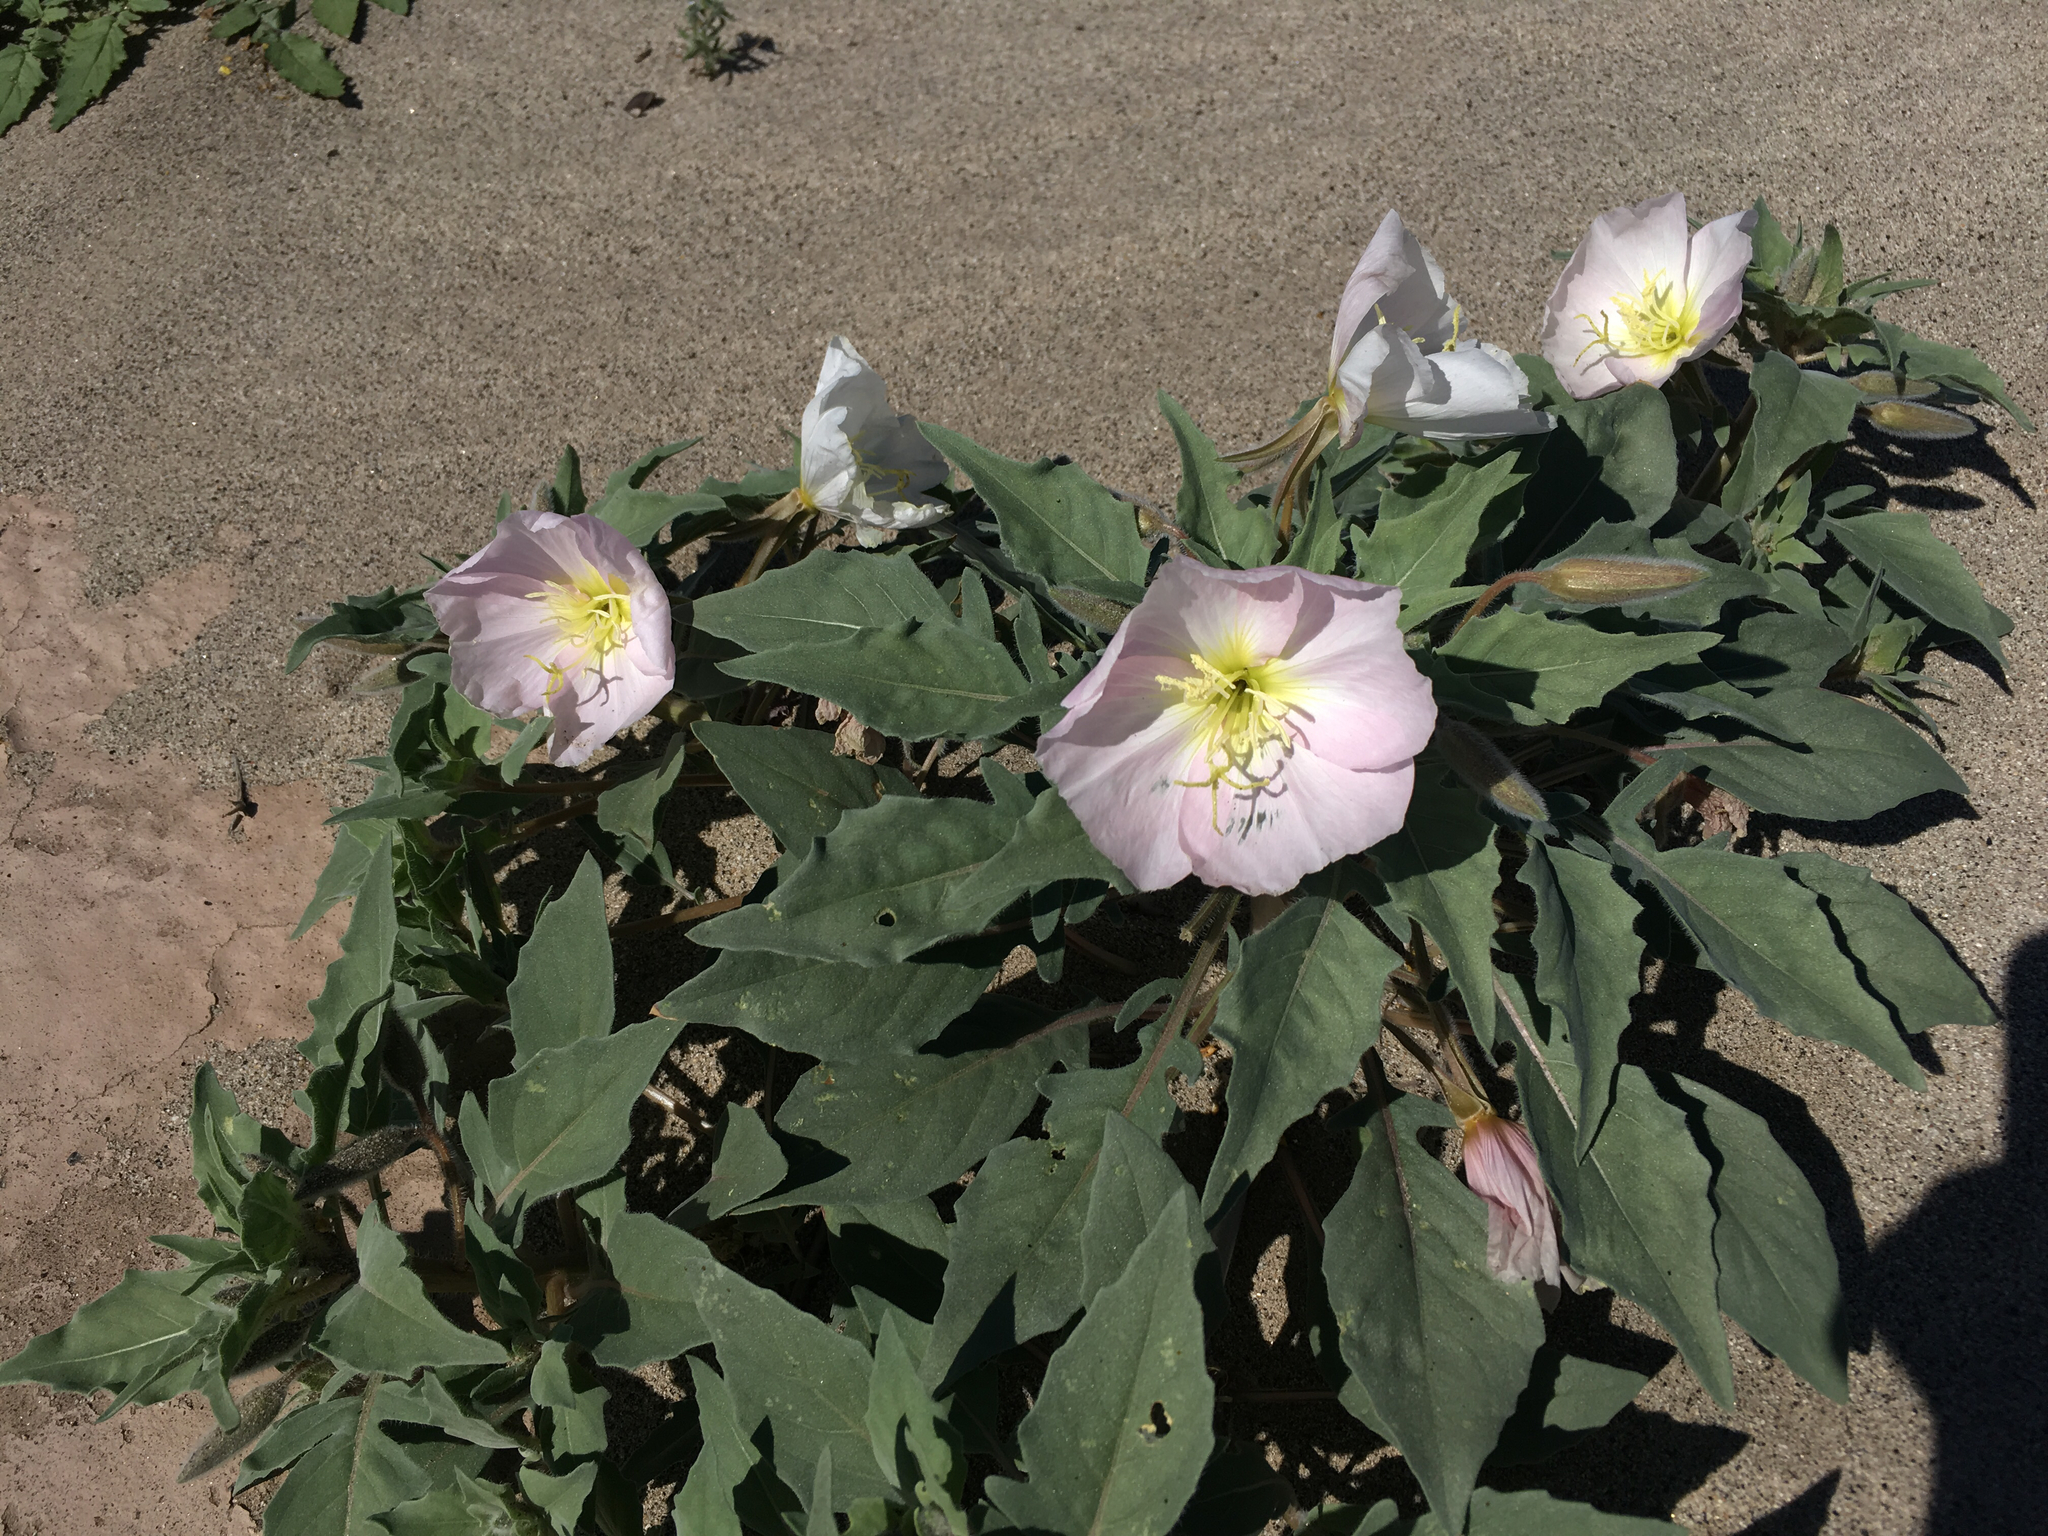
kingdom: Plantae
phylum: Tracheophyta
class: Magnoliopsida
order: Myrtales
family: Onagraceae
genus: Oenothera
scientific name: Oenothera deltoides
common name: Basket evening-primrose
